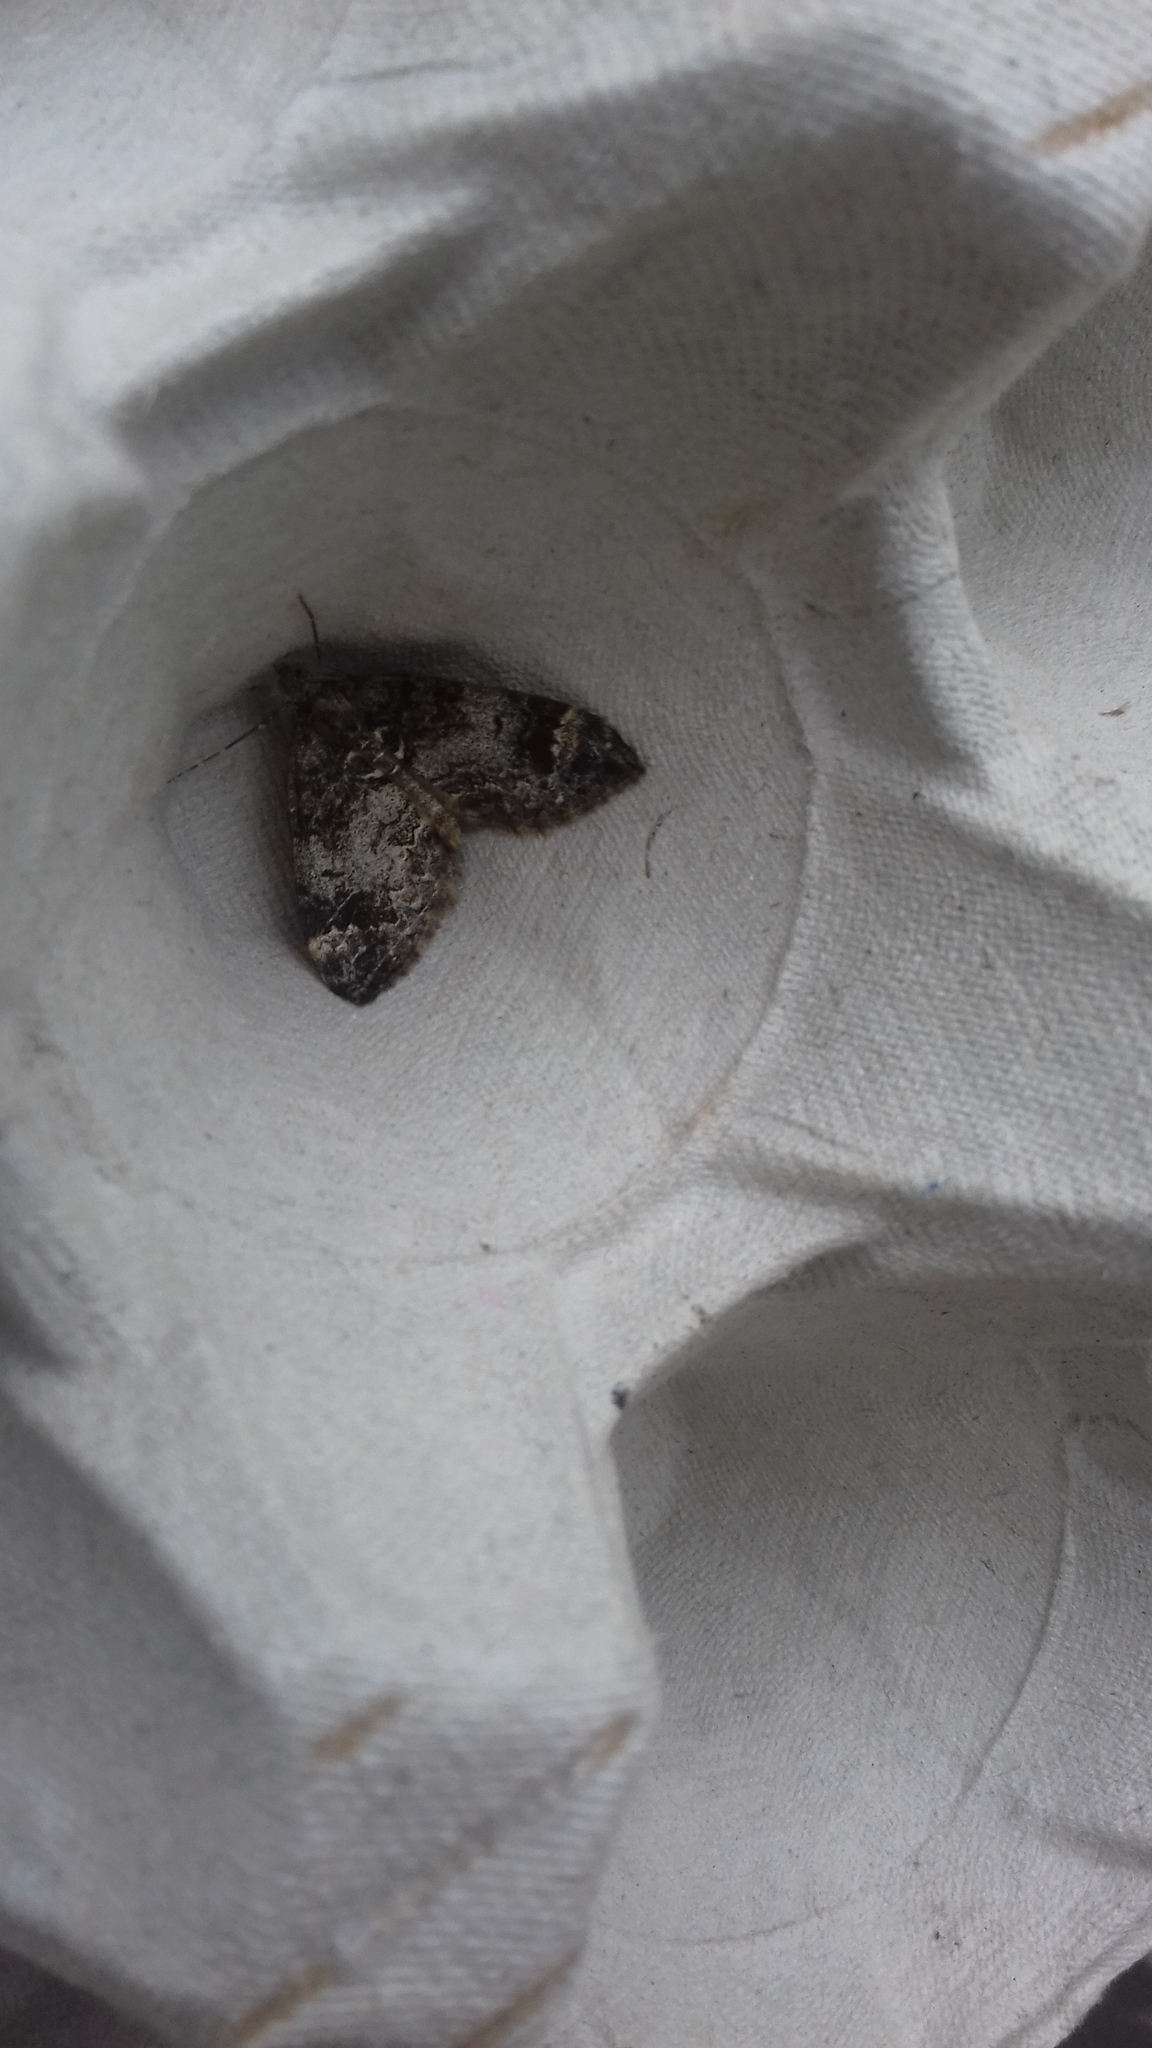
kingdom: Animalia
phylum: Arthropoda
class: Insecta
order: Lepidoptera
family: Geometridae
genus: Dysstroma
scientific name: Dysstroma truncata
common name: Common marbled carpet
